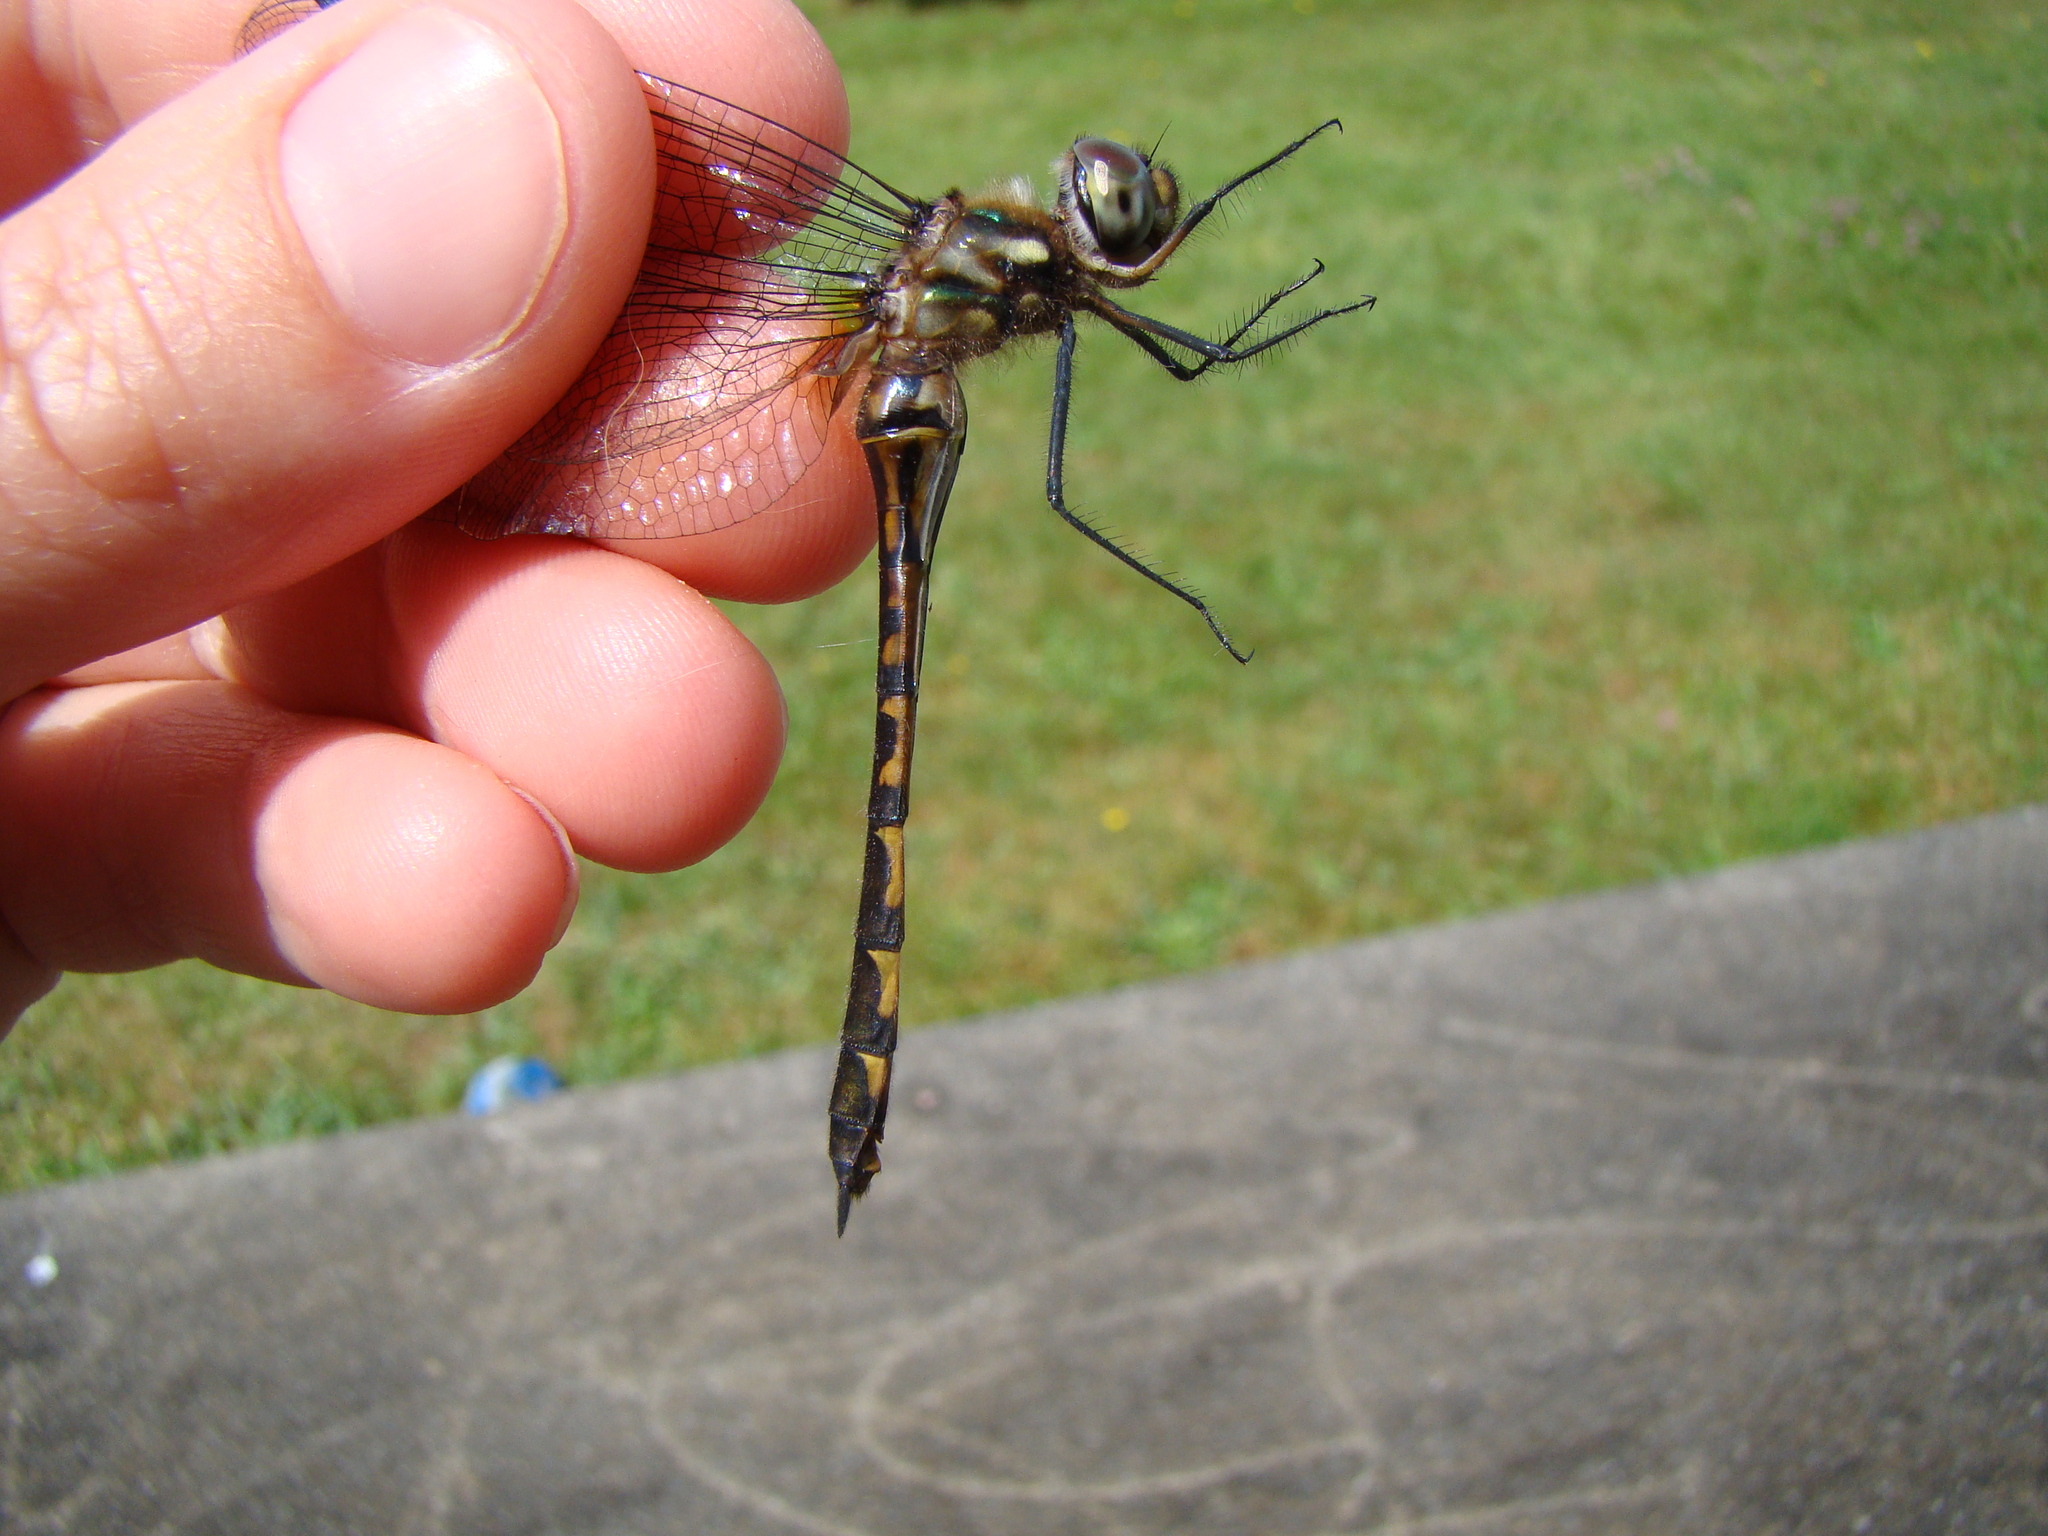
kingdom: Animalia
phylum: Arthropoda
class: Insecta
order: Odonata
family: Corduliidae
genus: Hemicordulia
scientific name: Hemicordulia australiae
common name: Sentry dragonfly
